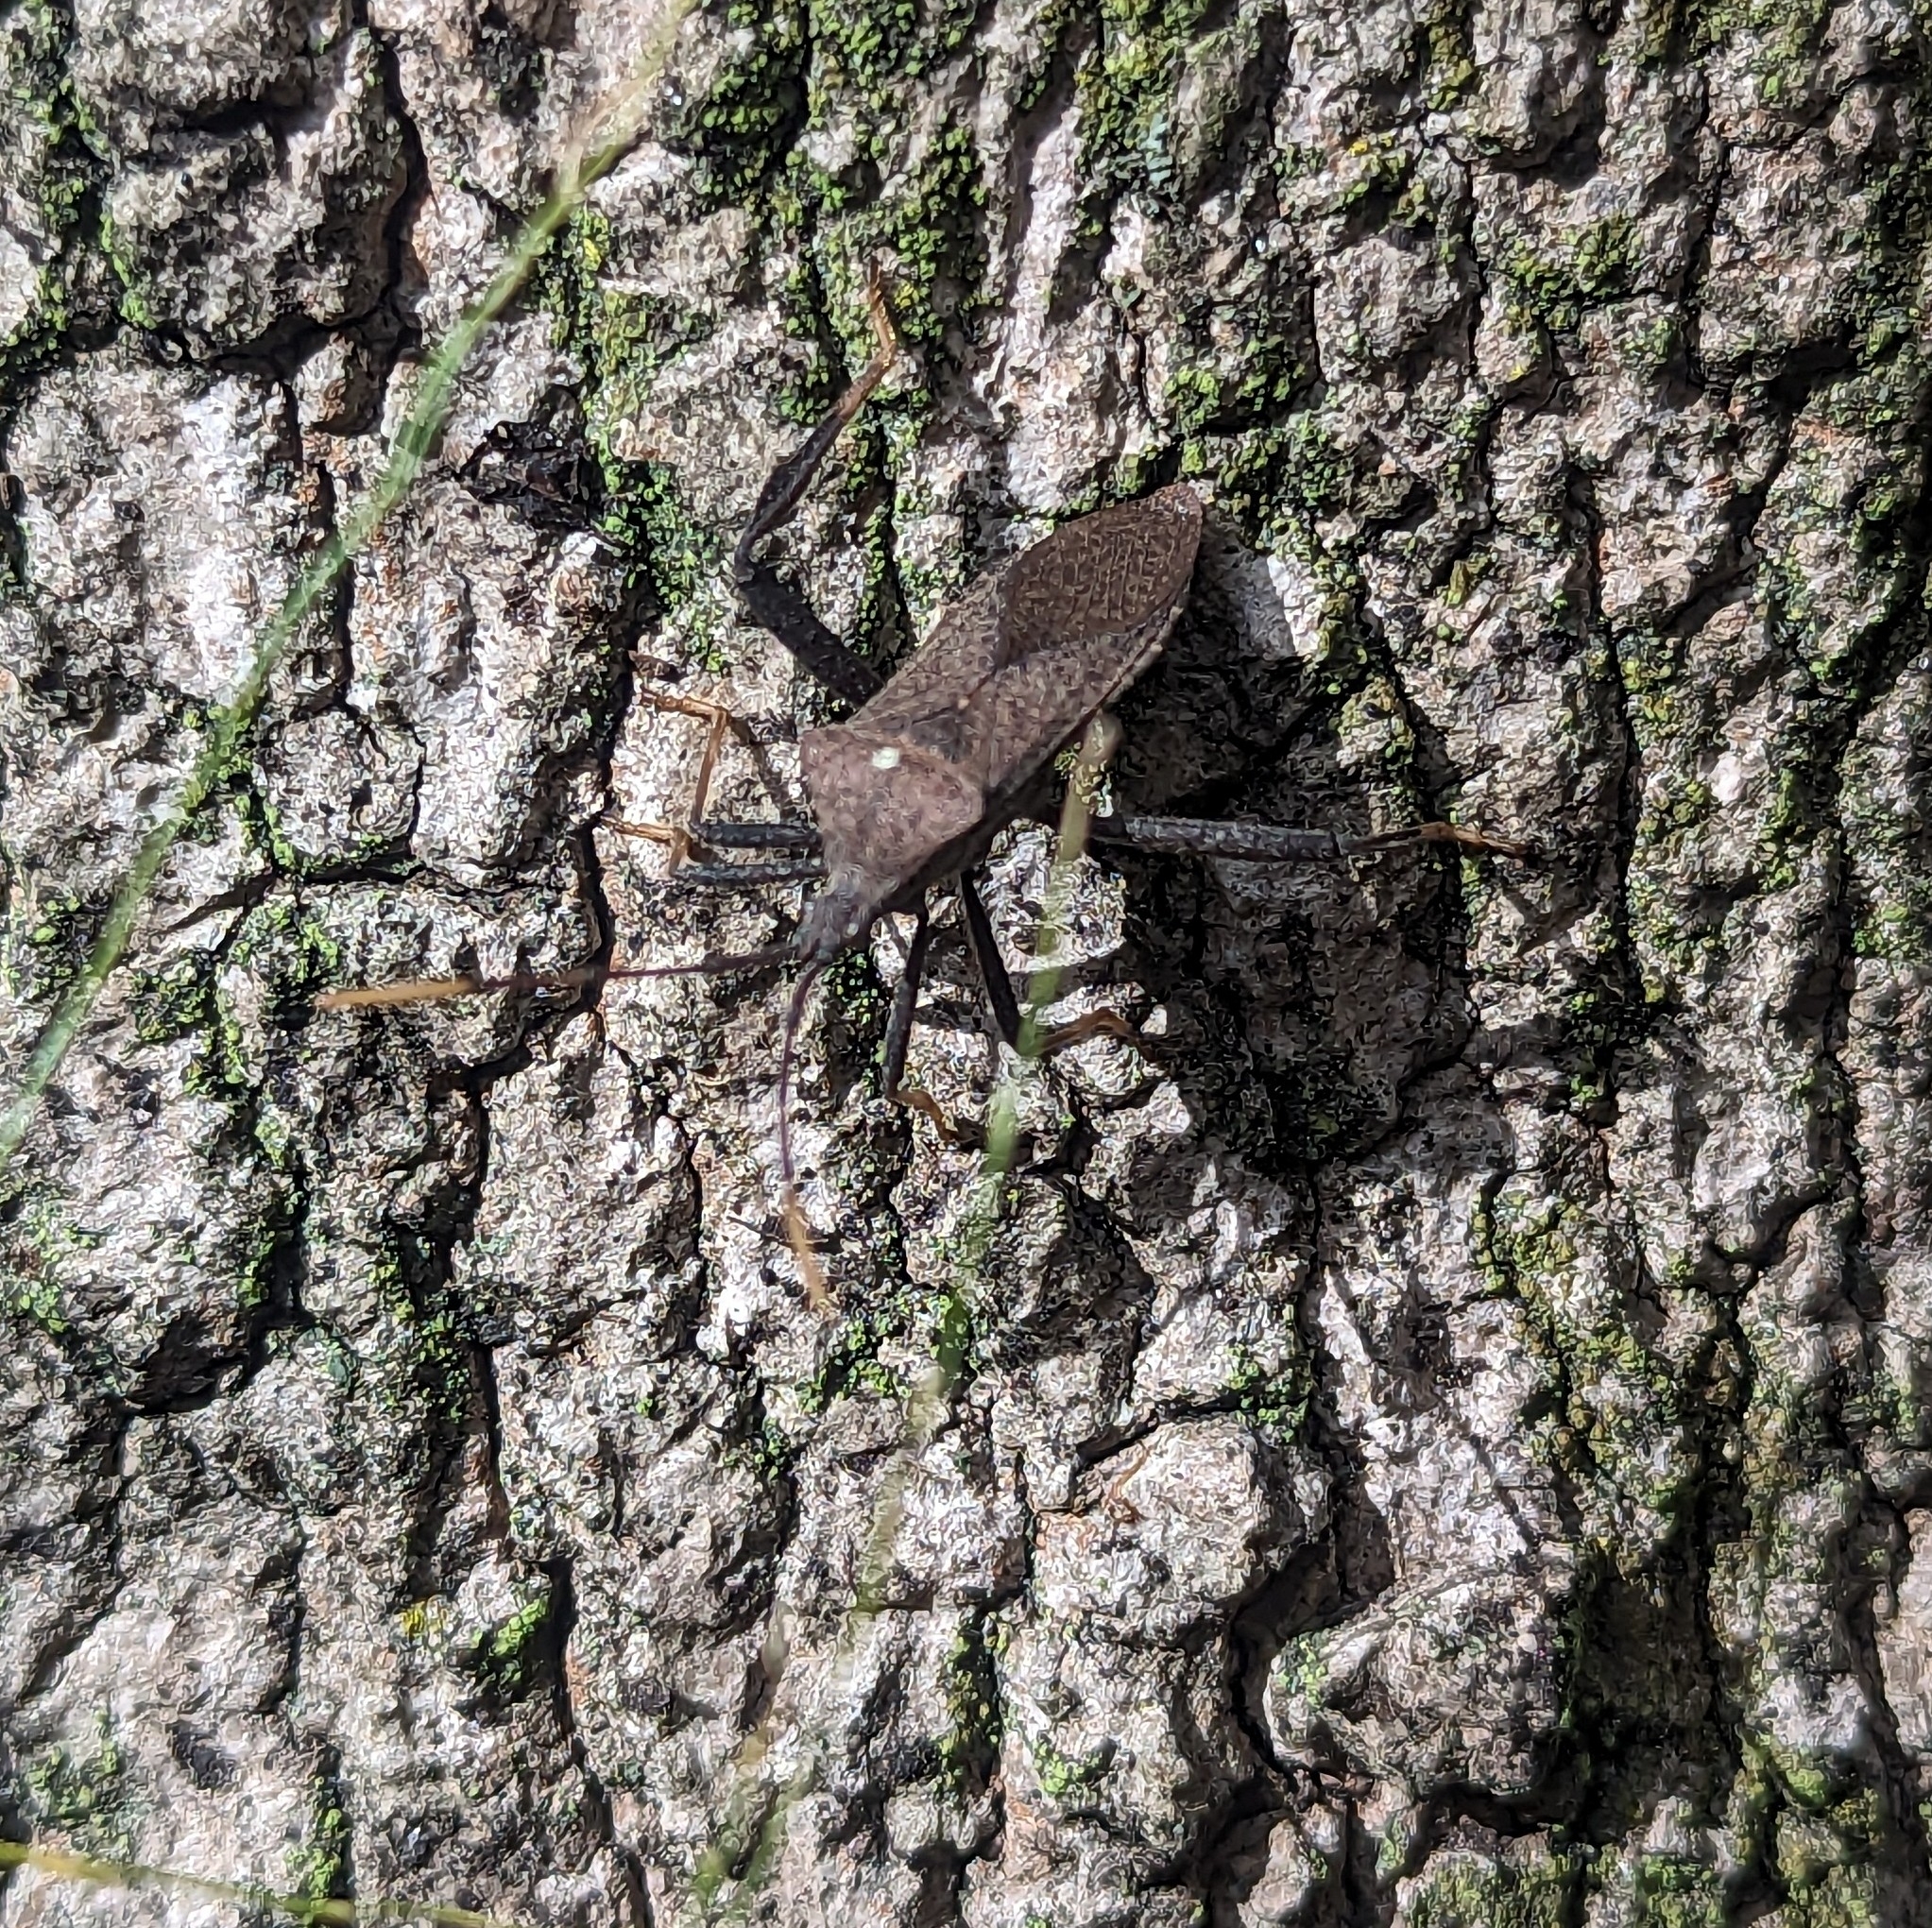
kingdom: Animalia
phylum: Arthropoda
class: Insecta
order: Hemiptera
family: Coreidae
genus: Acanthocephala
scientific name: Acanthocephala terminalis
